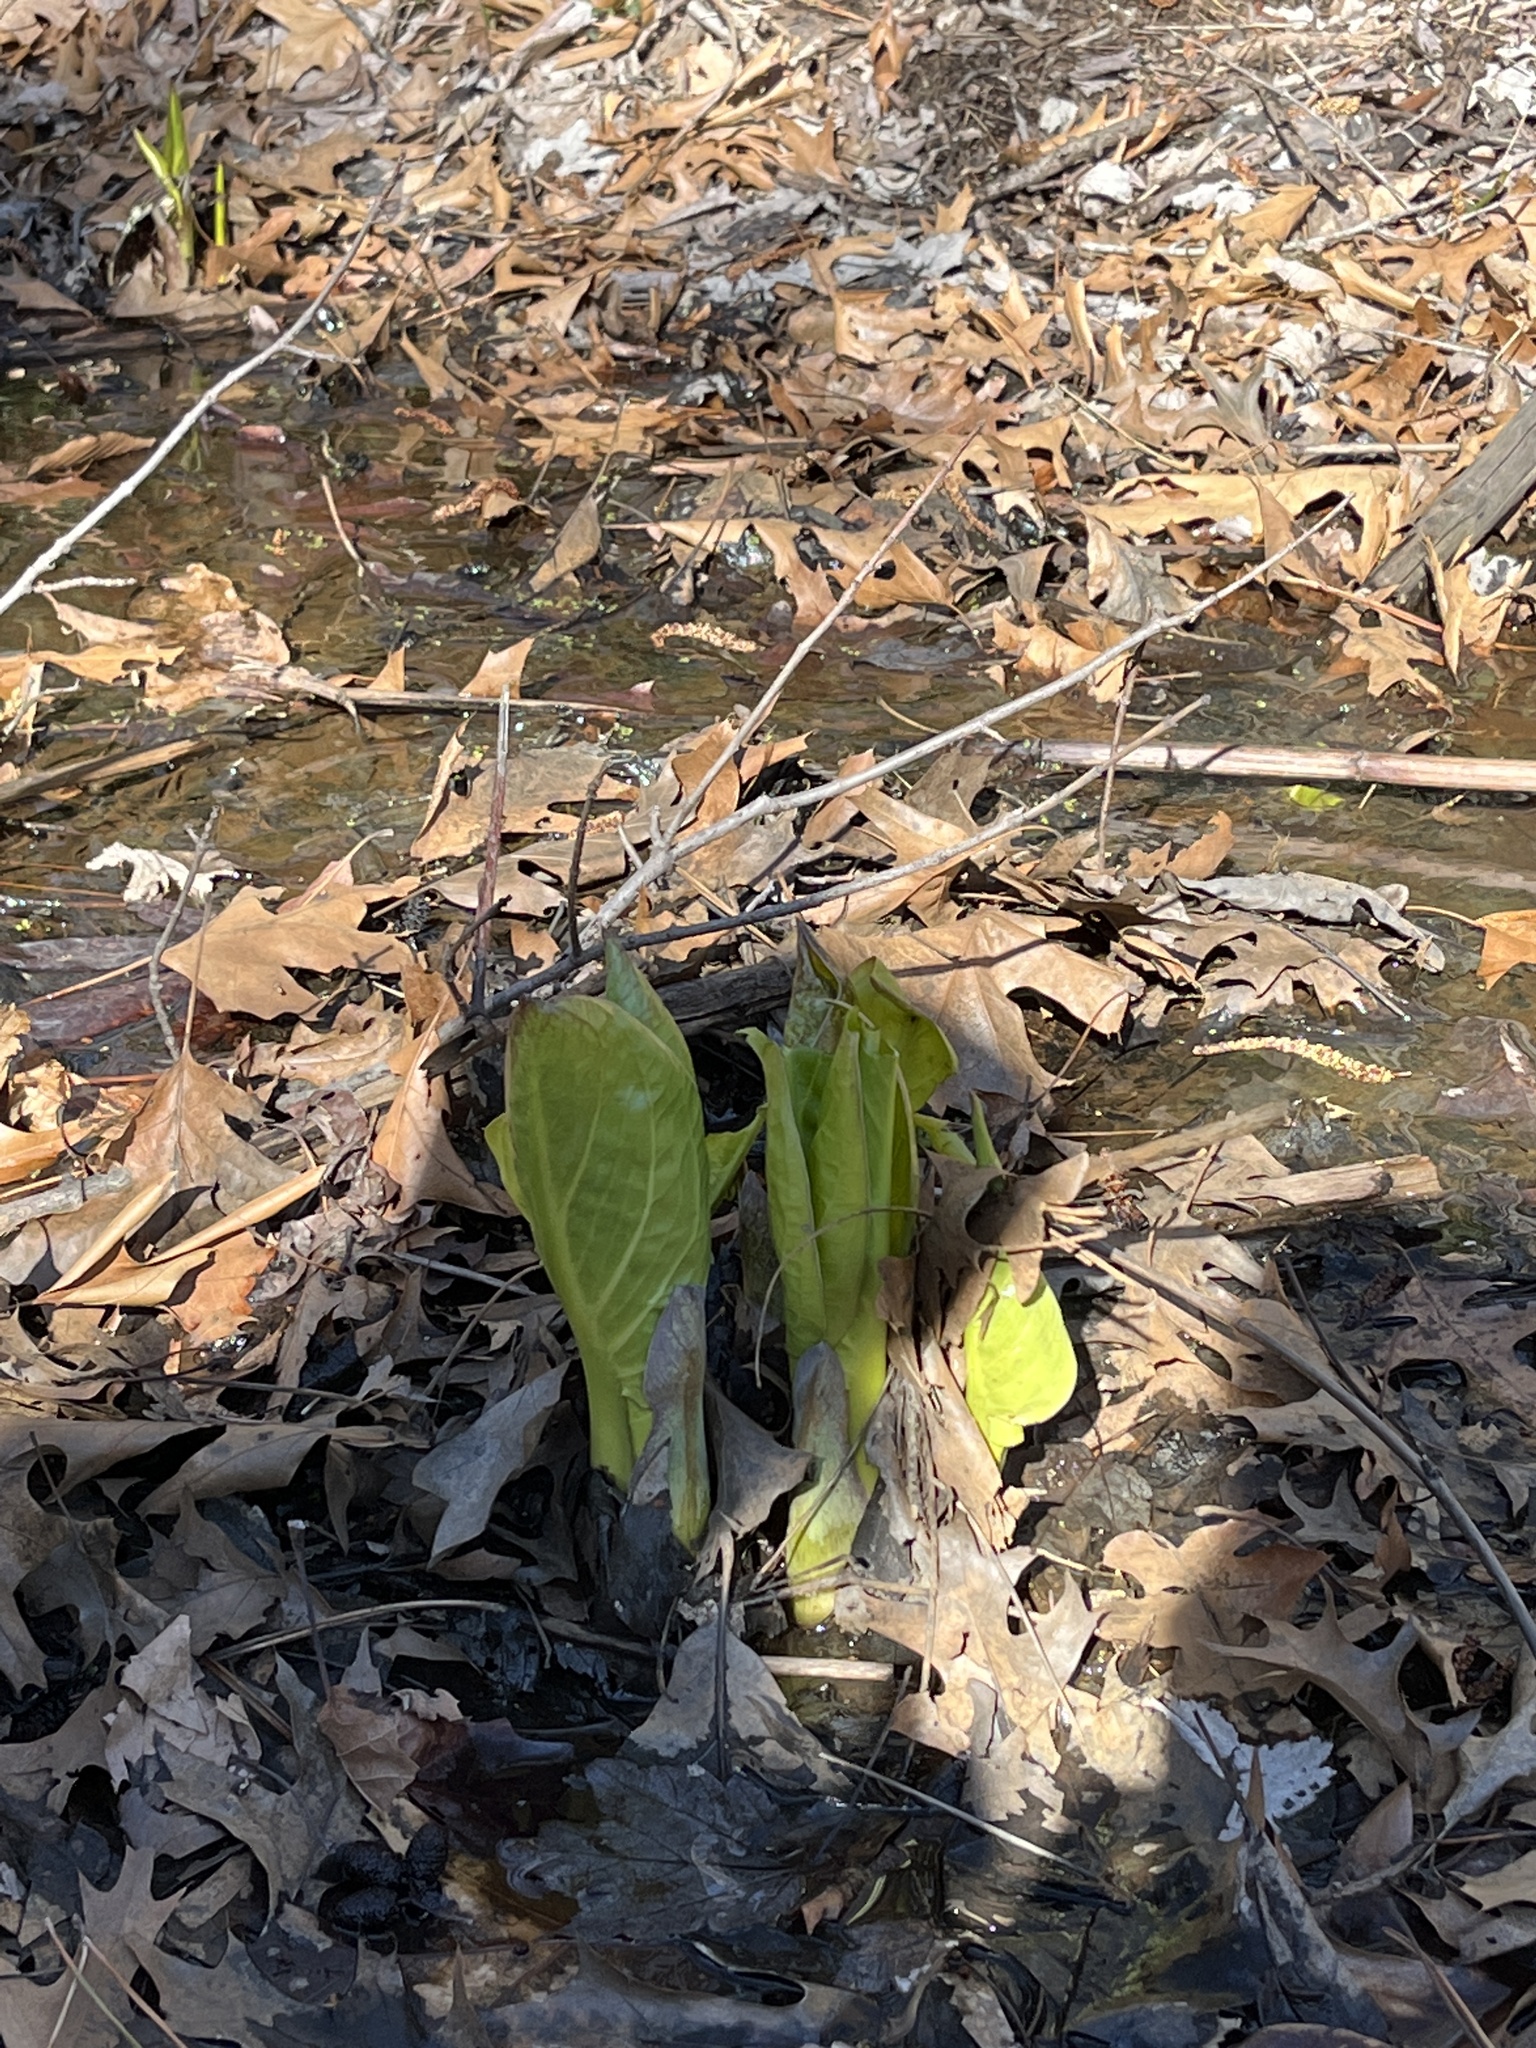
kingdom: Plantae
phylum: Tracheophyta
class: Liliopsida
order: Alismatales
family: Araceae
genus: Symplocarpus
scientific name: Symplocarpus foetidus
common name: Eastern skunk cabbage
